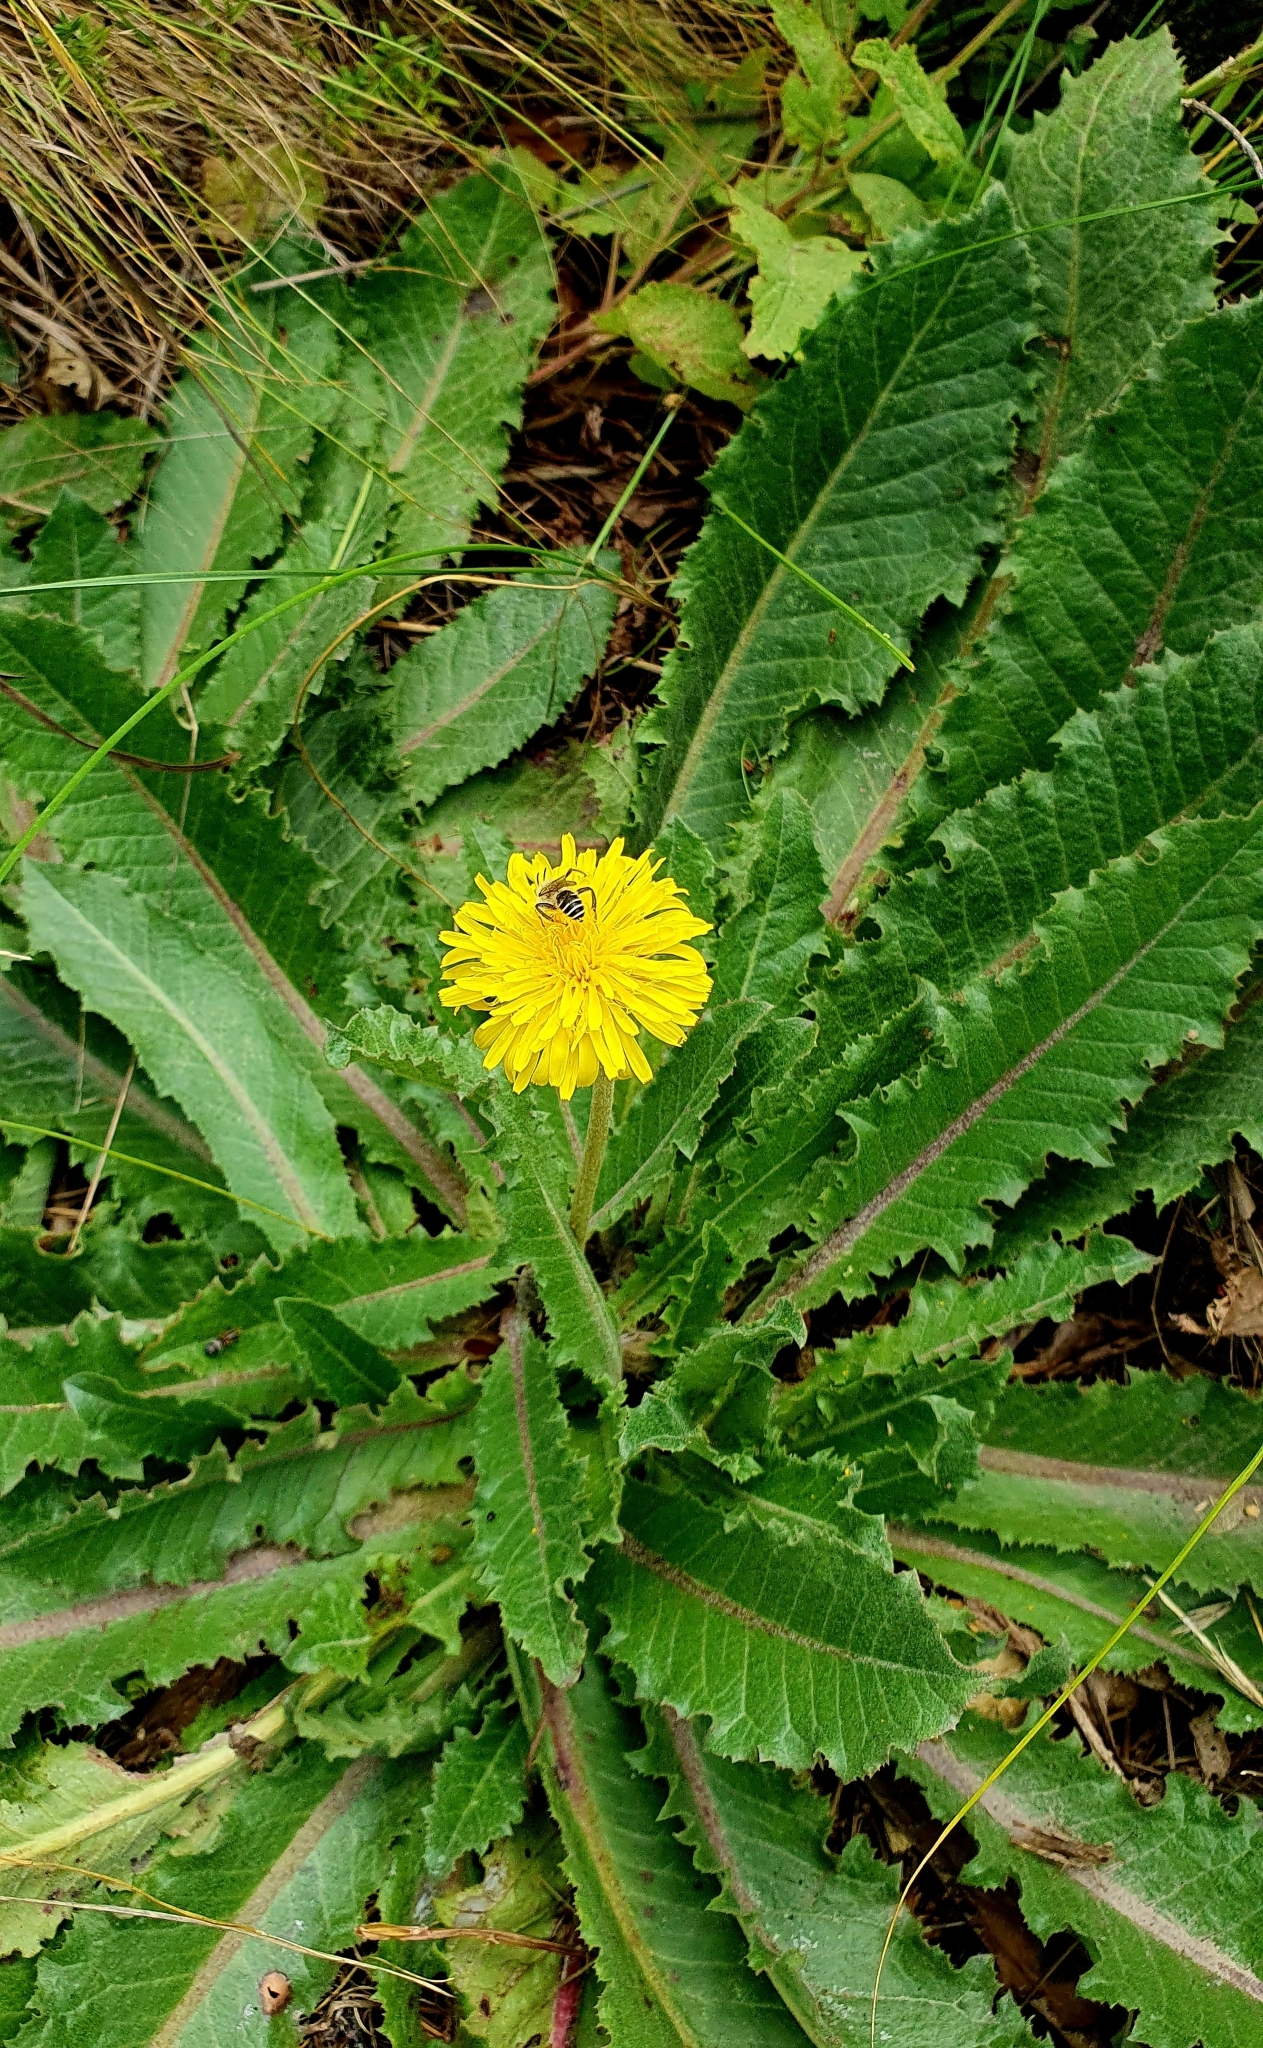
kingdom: Plantae
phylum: Tracheophyta
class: Magnoliopsida
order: Asterales
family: Asteraceae
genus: Taraxacum
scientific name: Taraxacum serotinum
